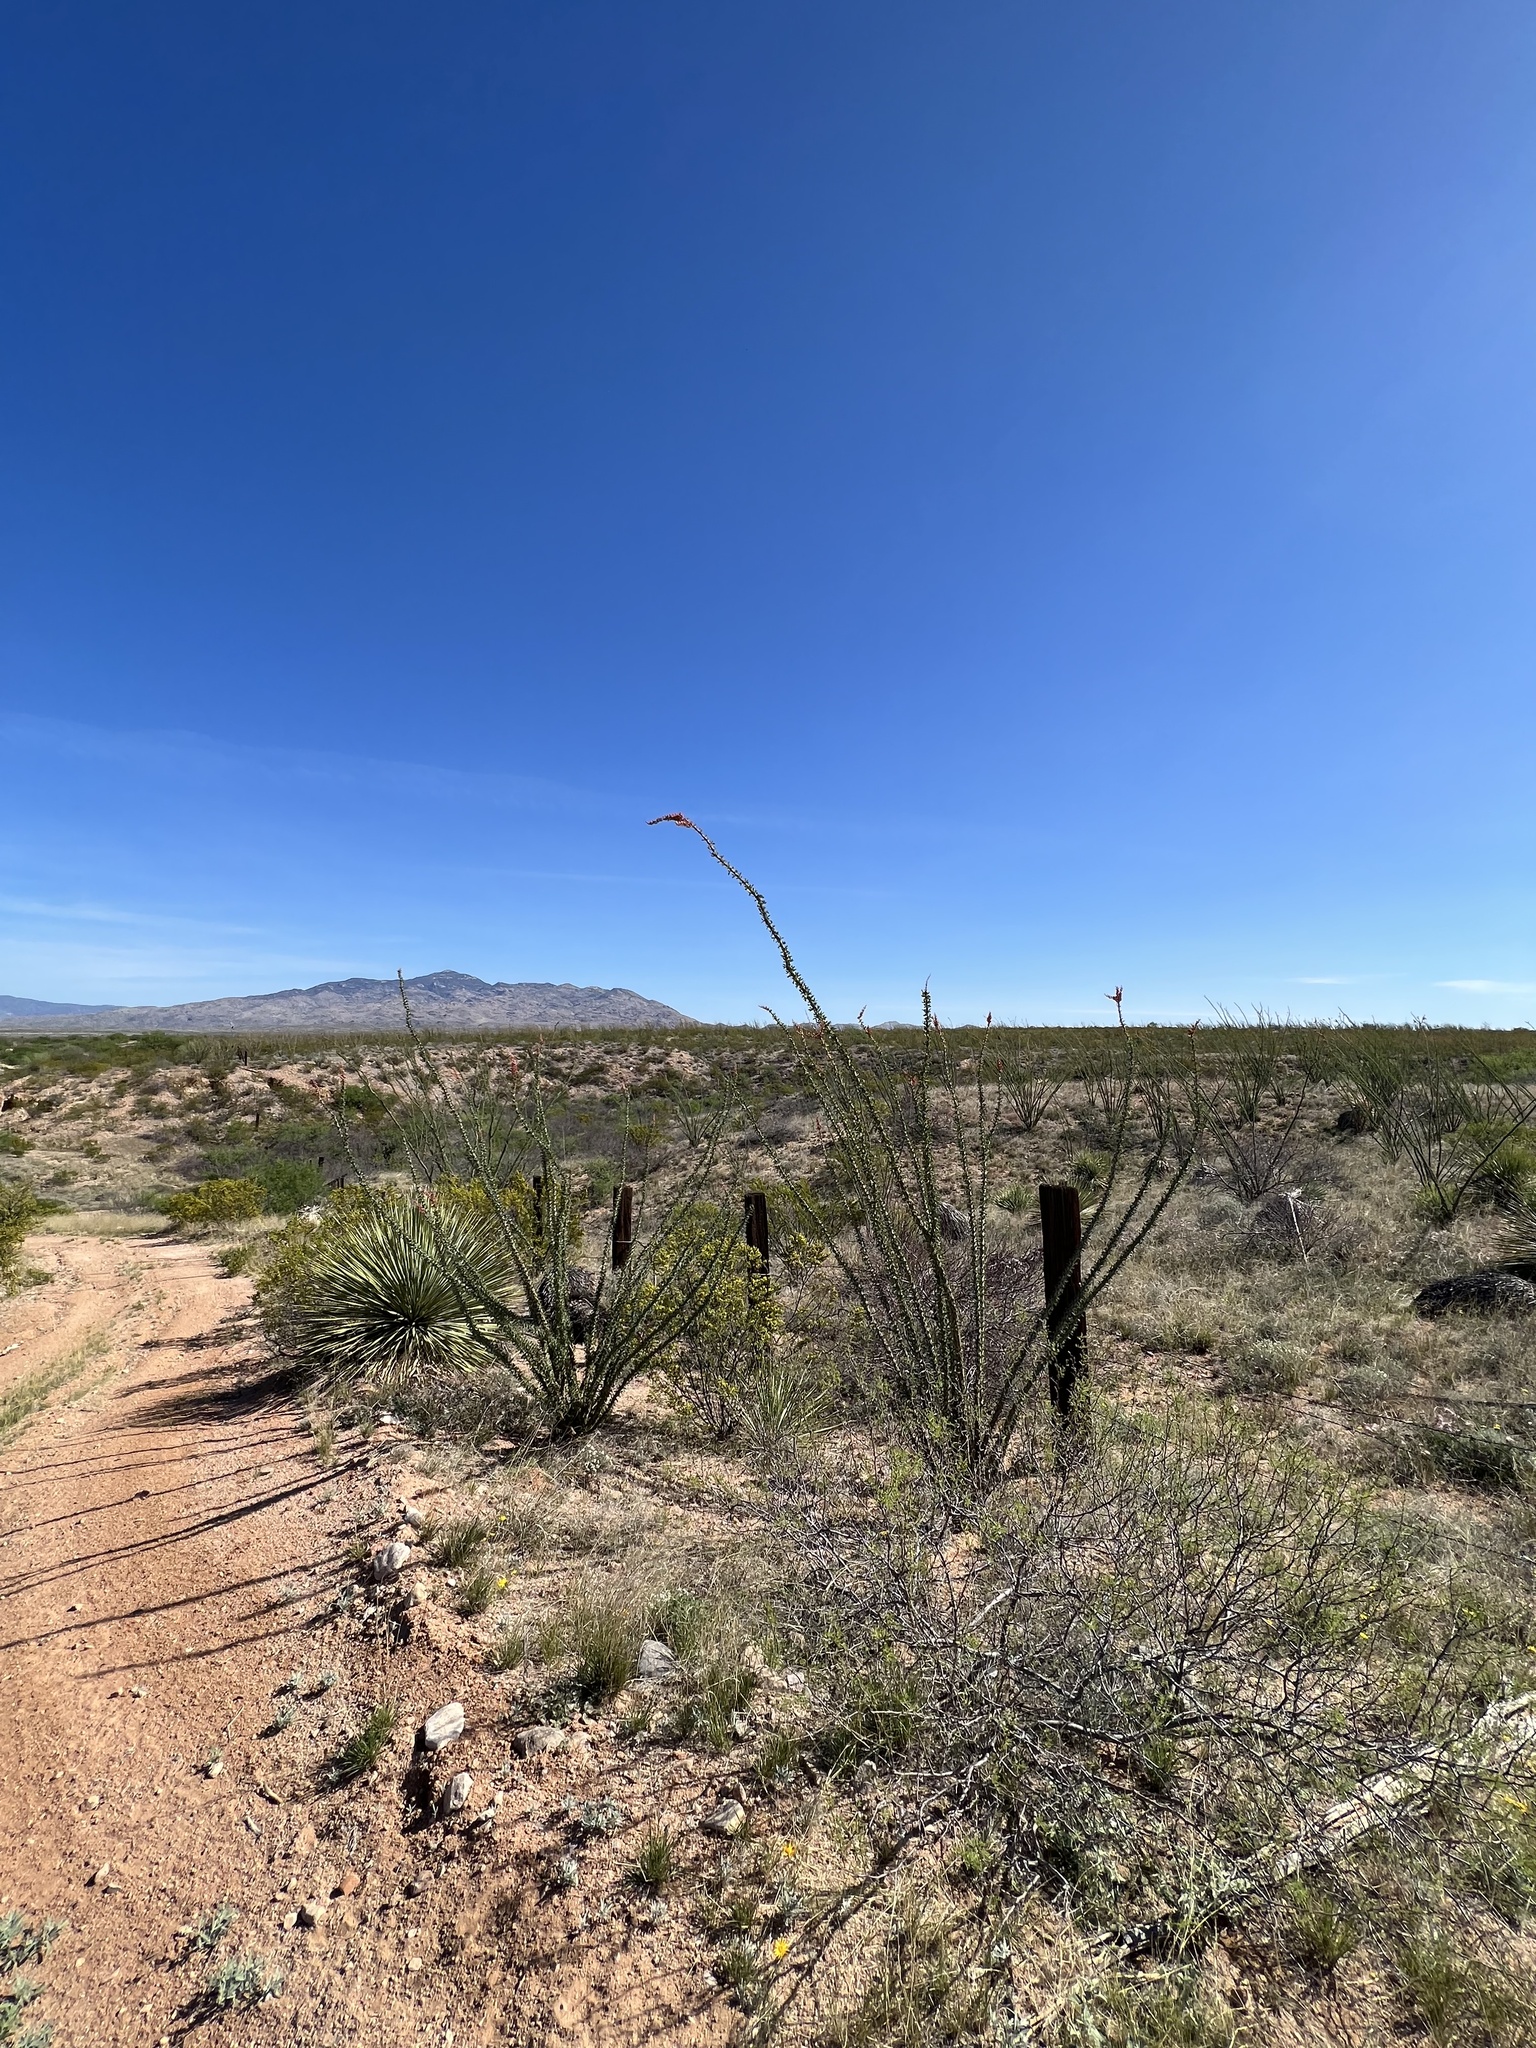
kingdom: Plantae
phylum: Tracheophyta
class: Magnoliopsida
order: Ericales
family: Fouquieriaceae
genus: Fouquieria
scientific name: Fouquieria splendens
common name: Vine-cactus
